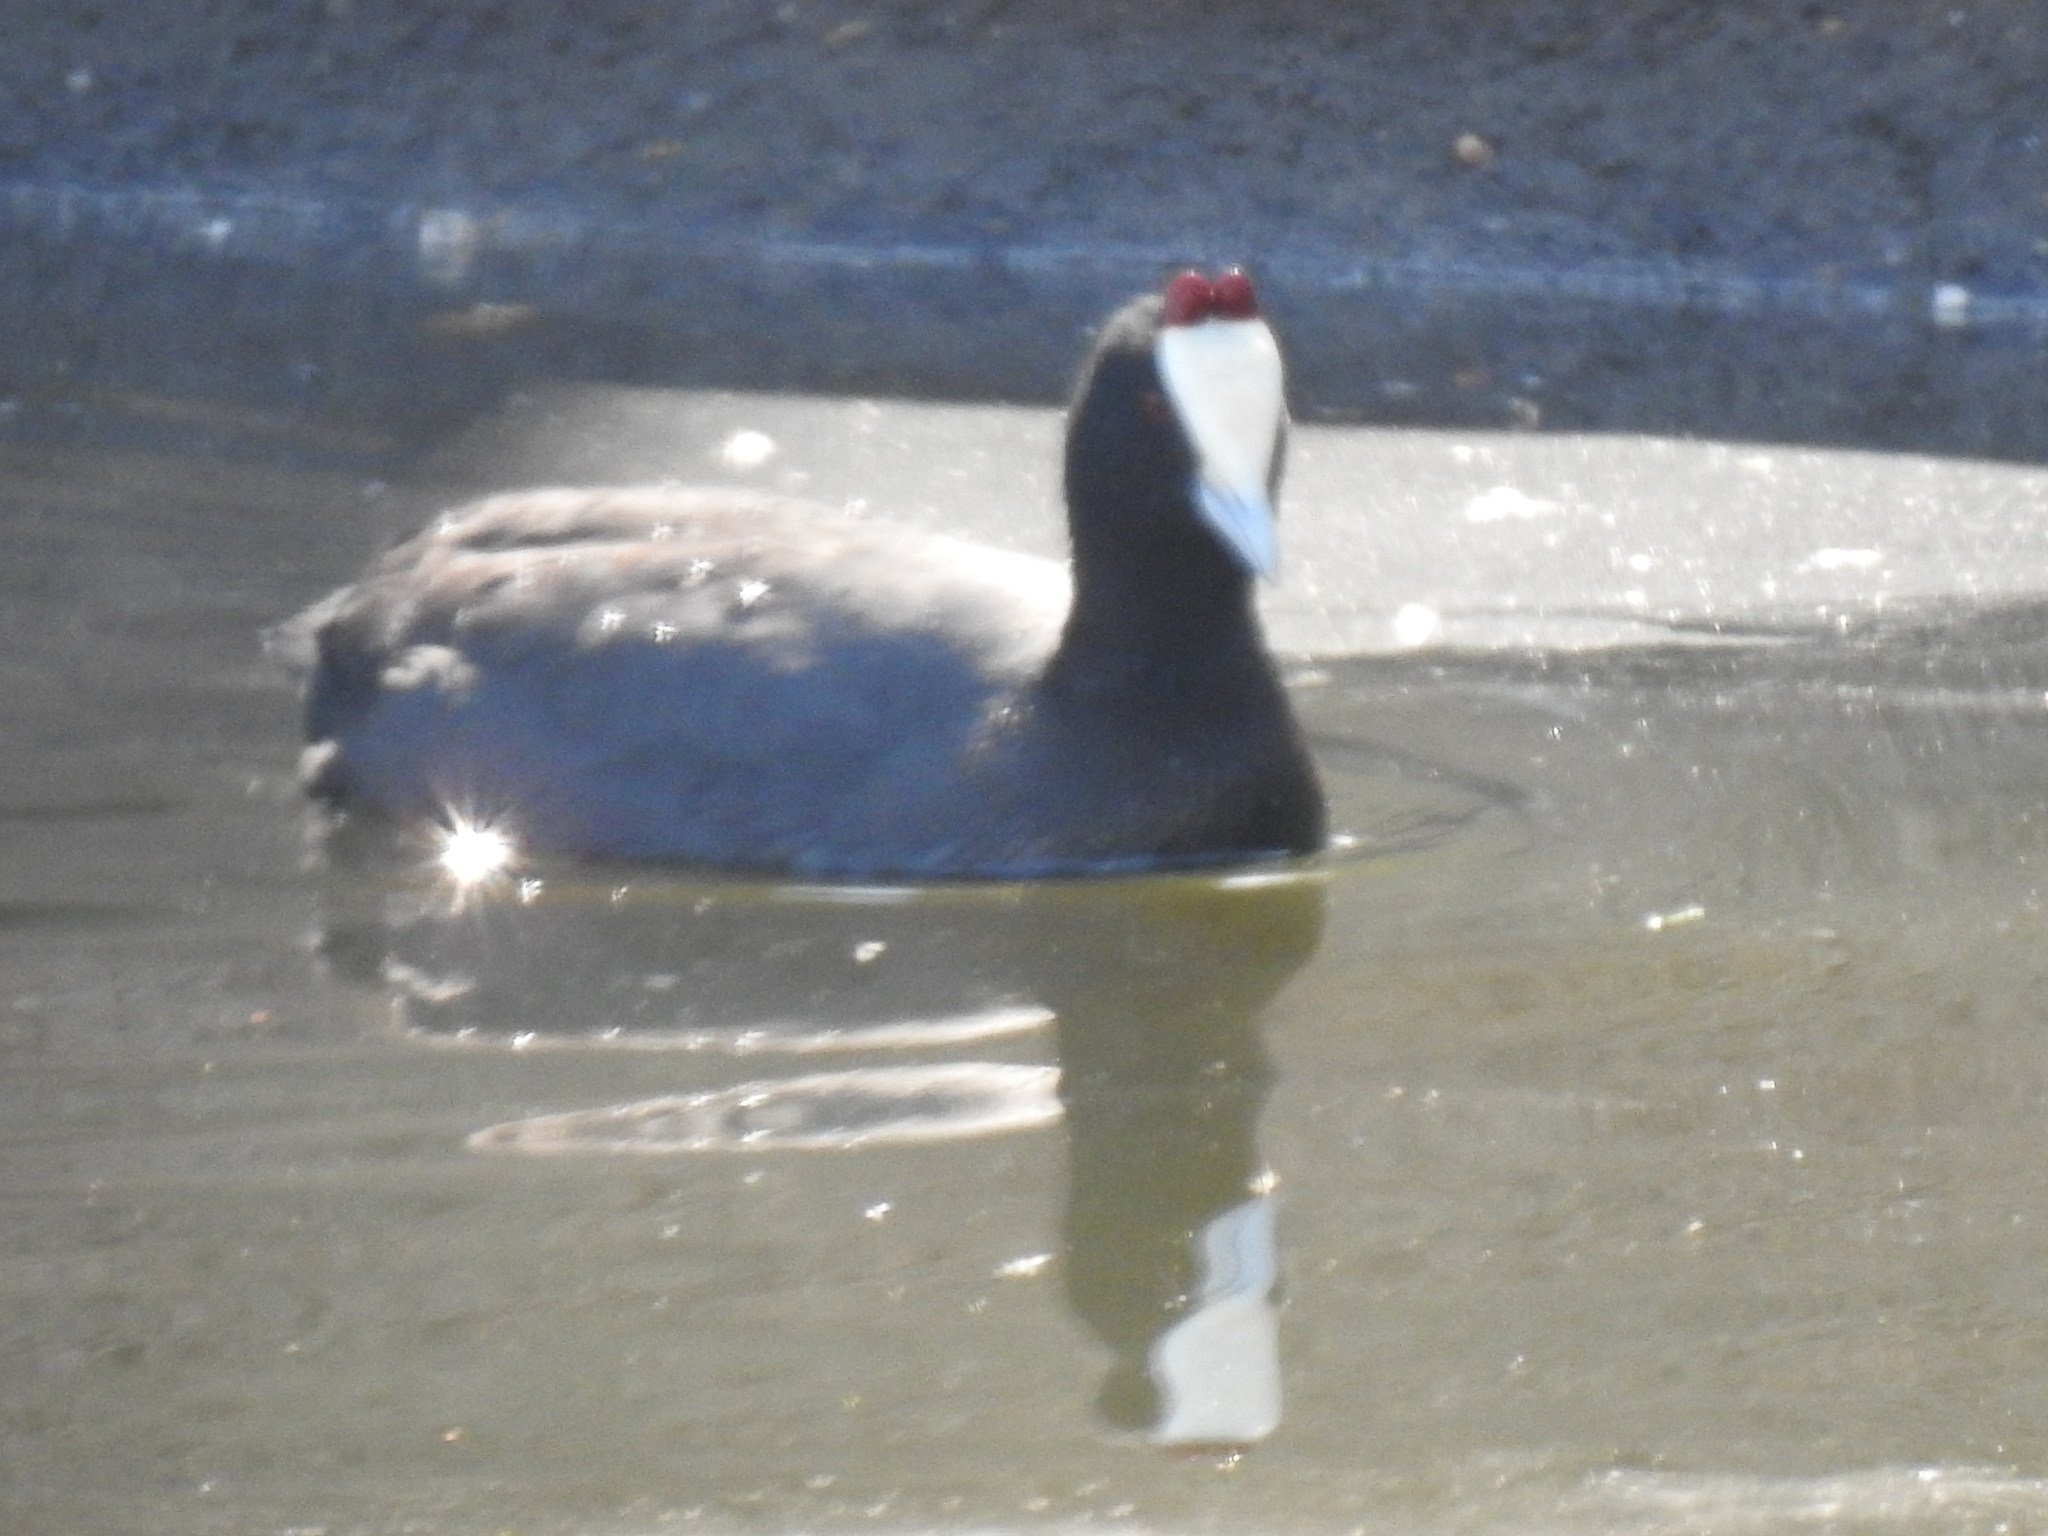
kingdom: Animalia
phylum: Chordata
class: Aves
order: Gruiformes
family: Rallidae
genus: Fulica
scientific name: Fulica cristata
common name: Red-knobbed coot
